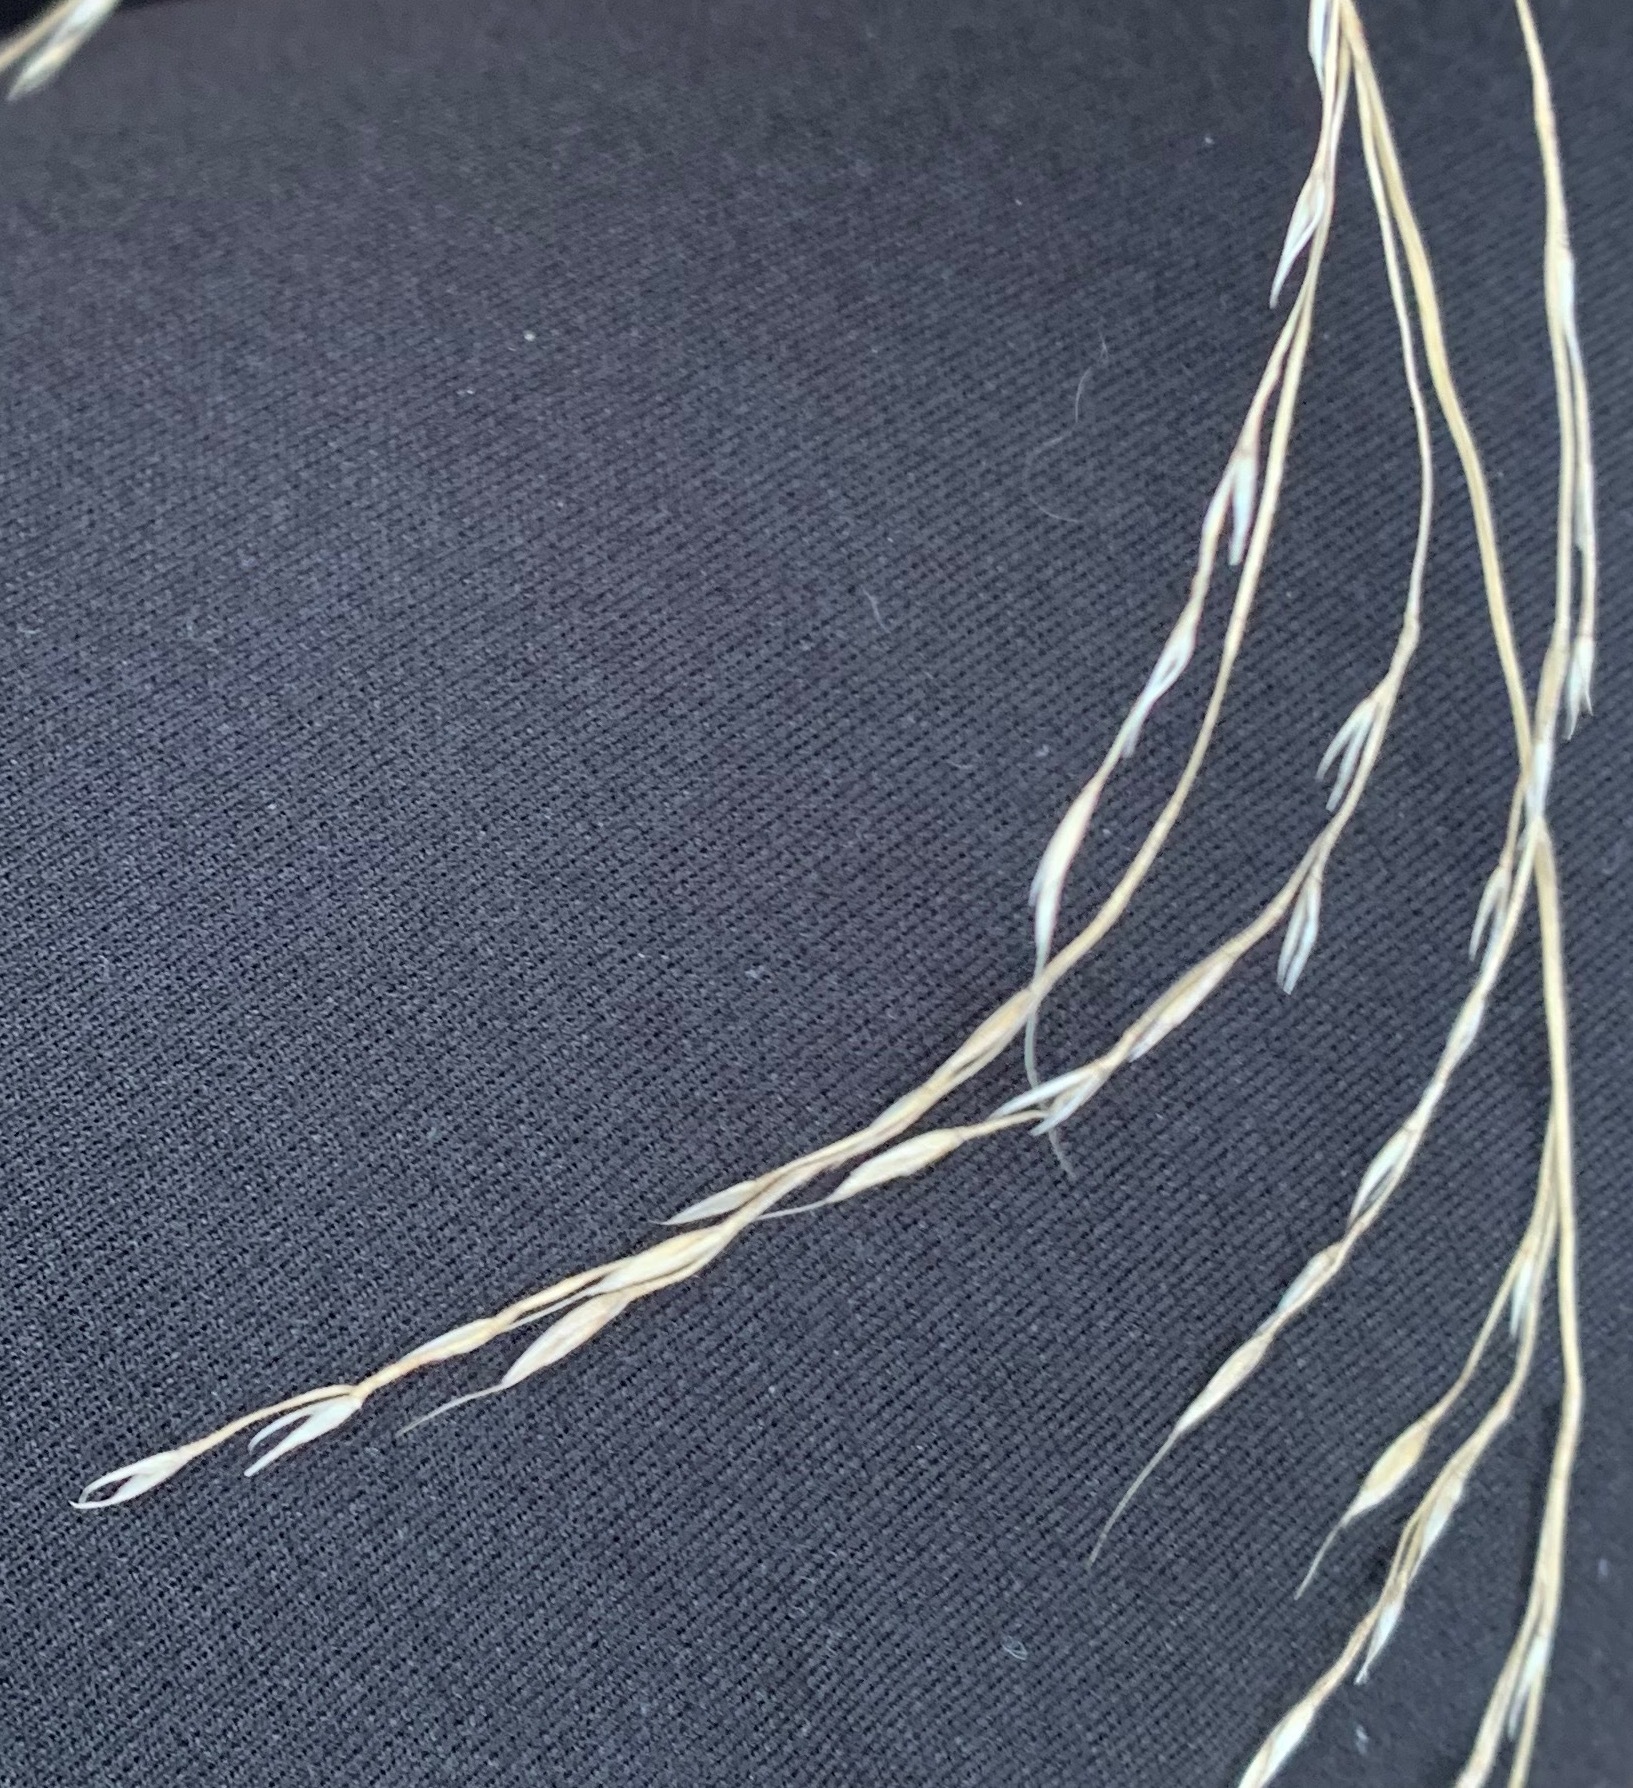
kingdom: Plantae
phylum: Tracheophyta
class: Liliopsida
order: Poales
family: Poaceae
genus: Lolium
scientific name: Lolium giganteum
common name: Giant fescue
